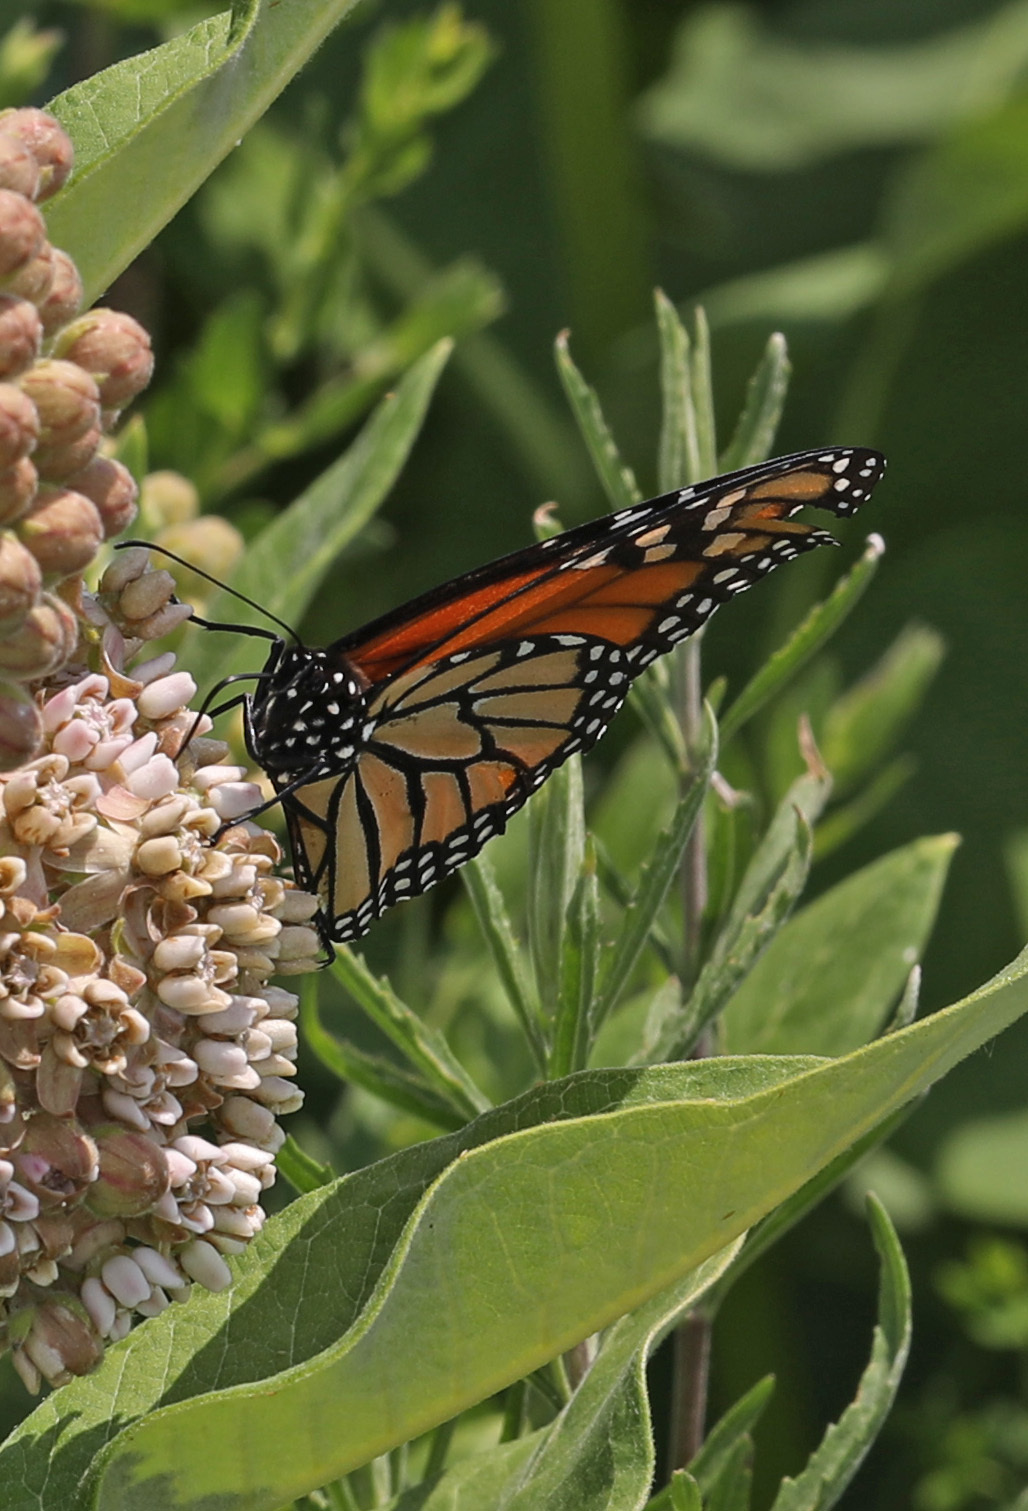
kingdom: Animalia
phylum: Arthropoda
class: Insecta
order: Lepidoptera
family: Nymphalidae
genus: Danaus
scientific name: Danaus plexippus
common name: Monarch
